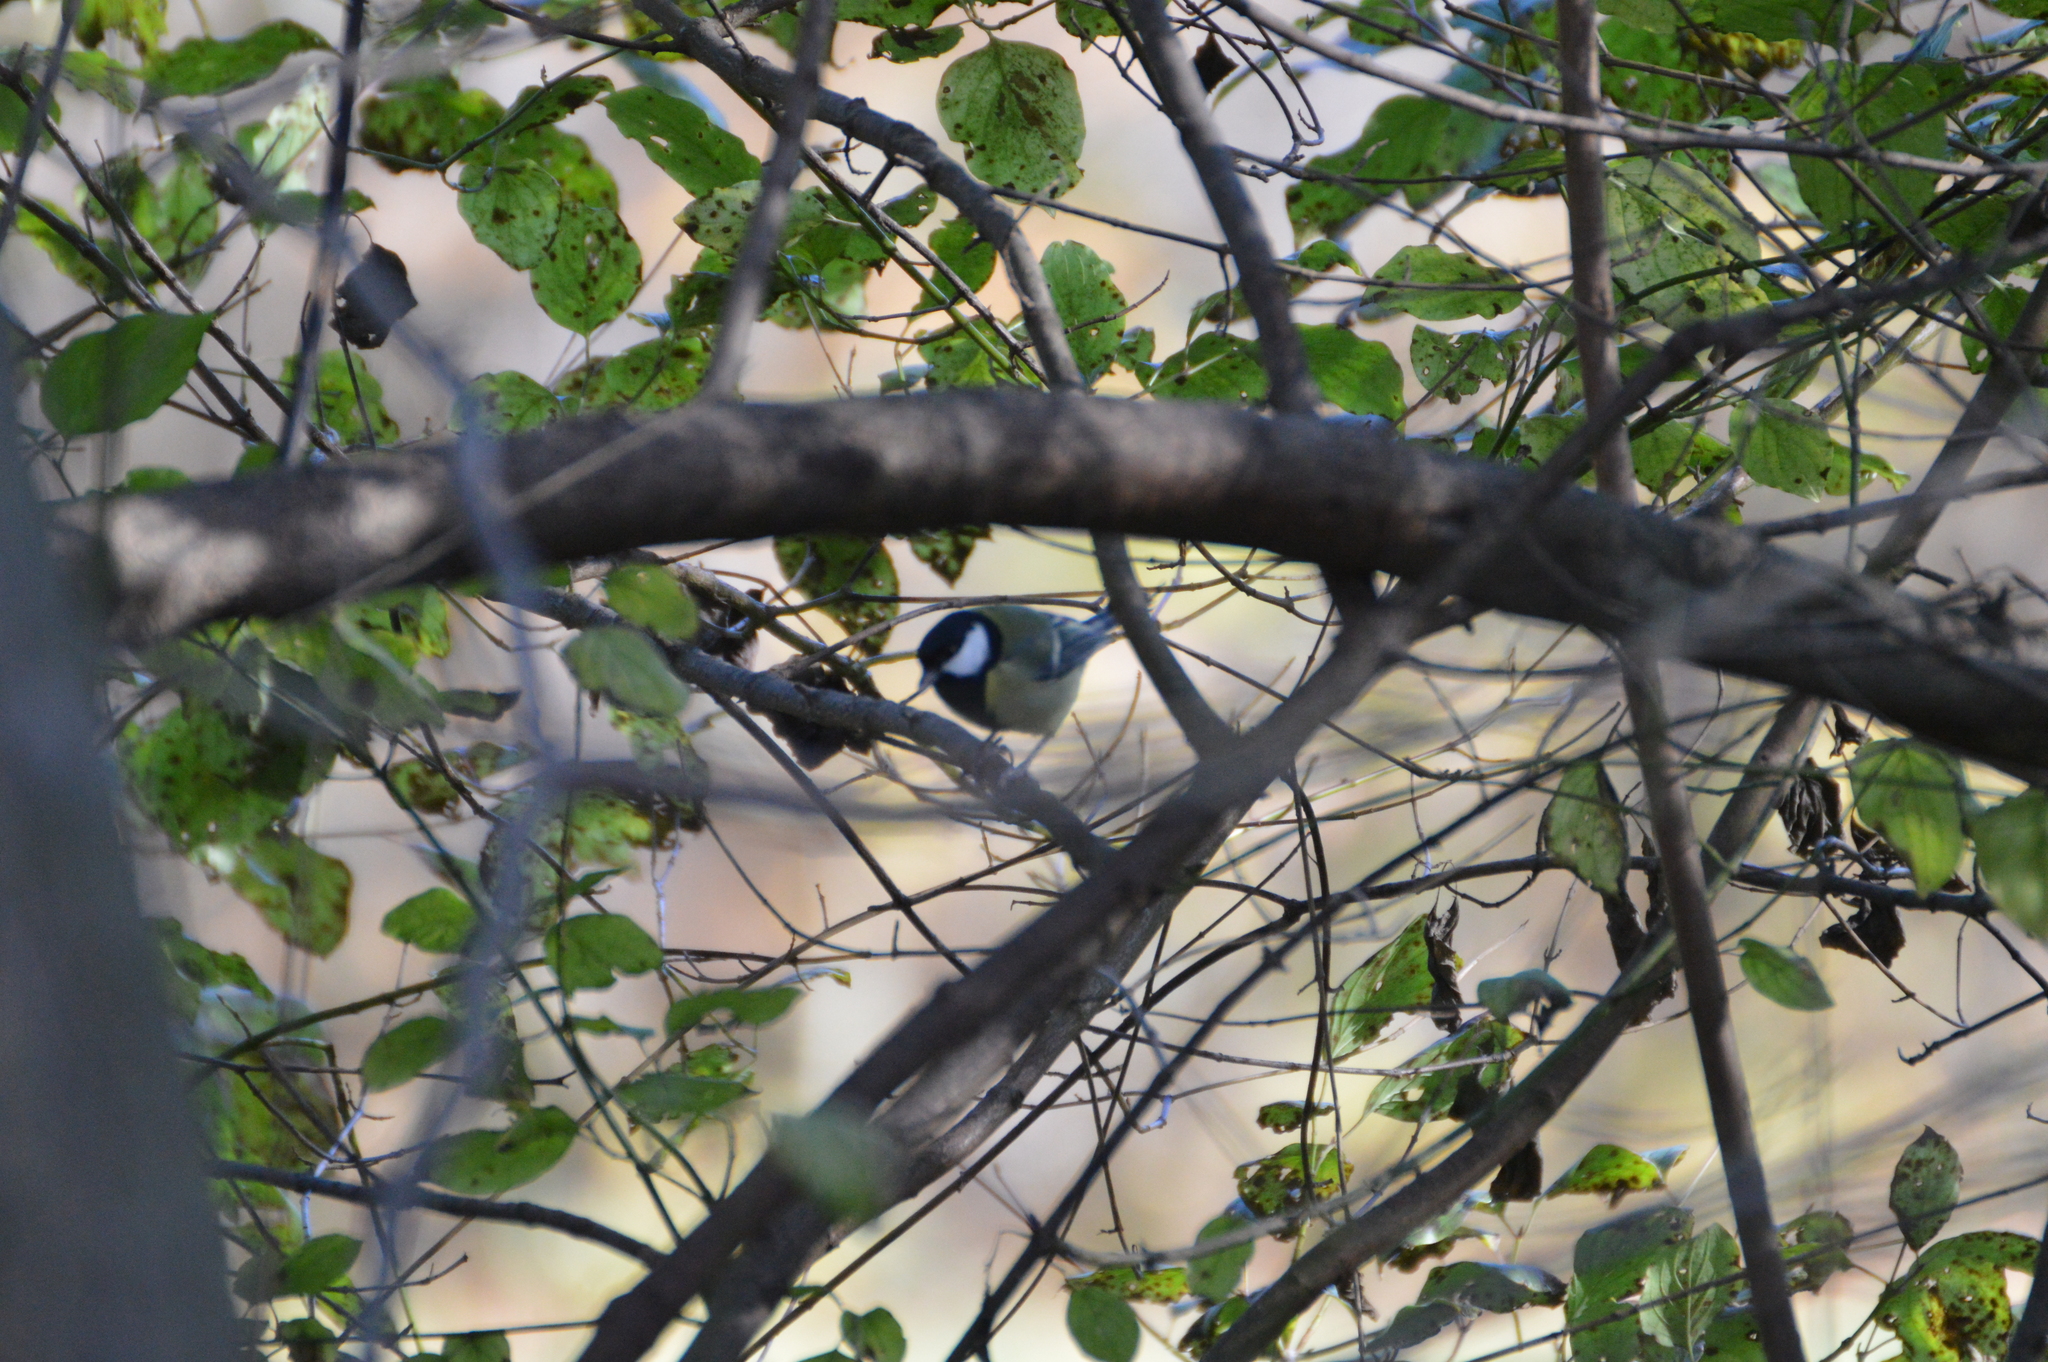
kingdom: Animalia
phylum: Chordata
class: Aves
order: Passeriformes
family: Paridae
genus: Parus
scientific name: Parus major
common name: Great tit
